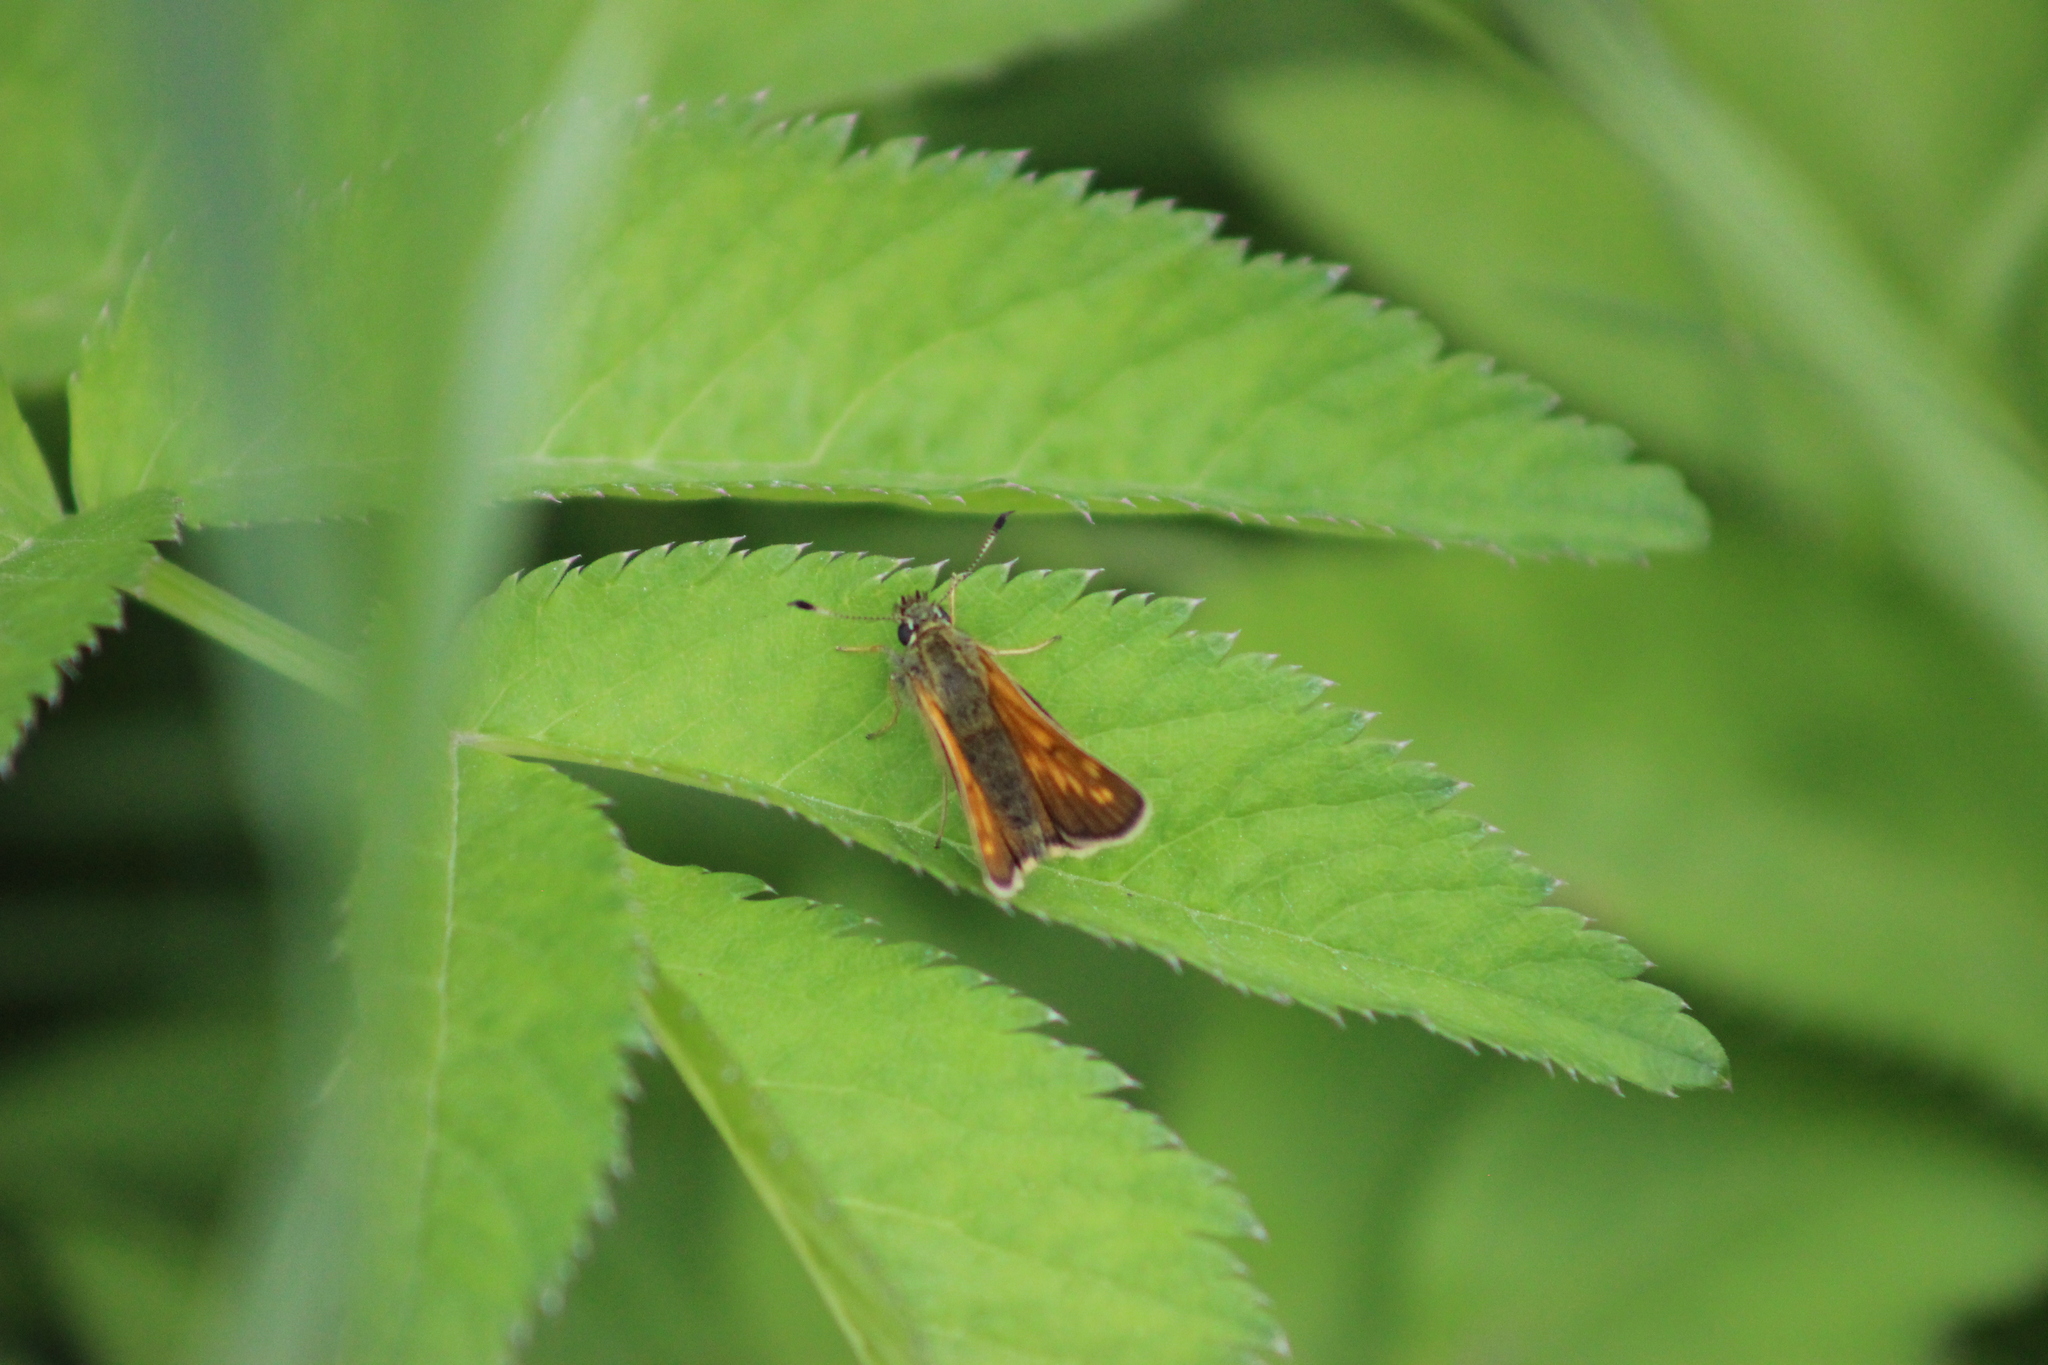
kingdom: Animalia
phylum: Arthropoda
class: Insecta
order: Lepidoptera
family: Hesperiidae
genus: Ochlodes
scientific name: Ochlodes venata
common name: Large skipper
